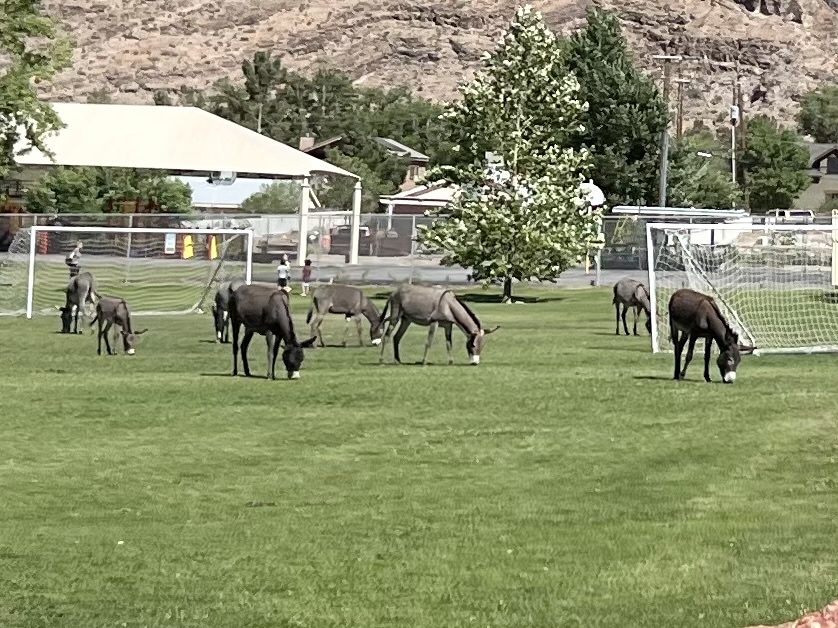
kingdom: Animalia
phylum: Chordata
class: Mammalia
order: Perissodactyla
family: Equidae
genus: Equus
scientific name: Equus asinus
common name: Ass
